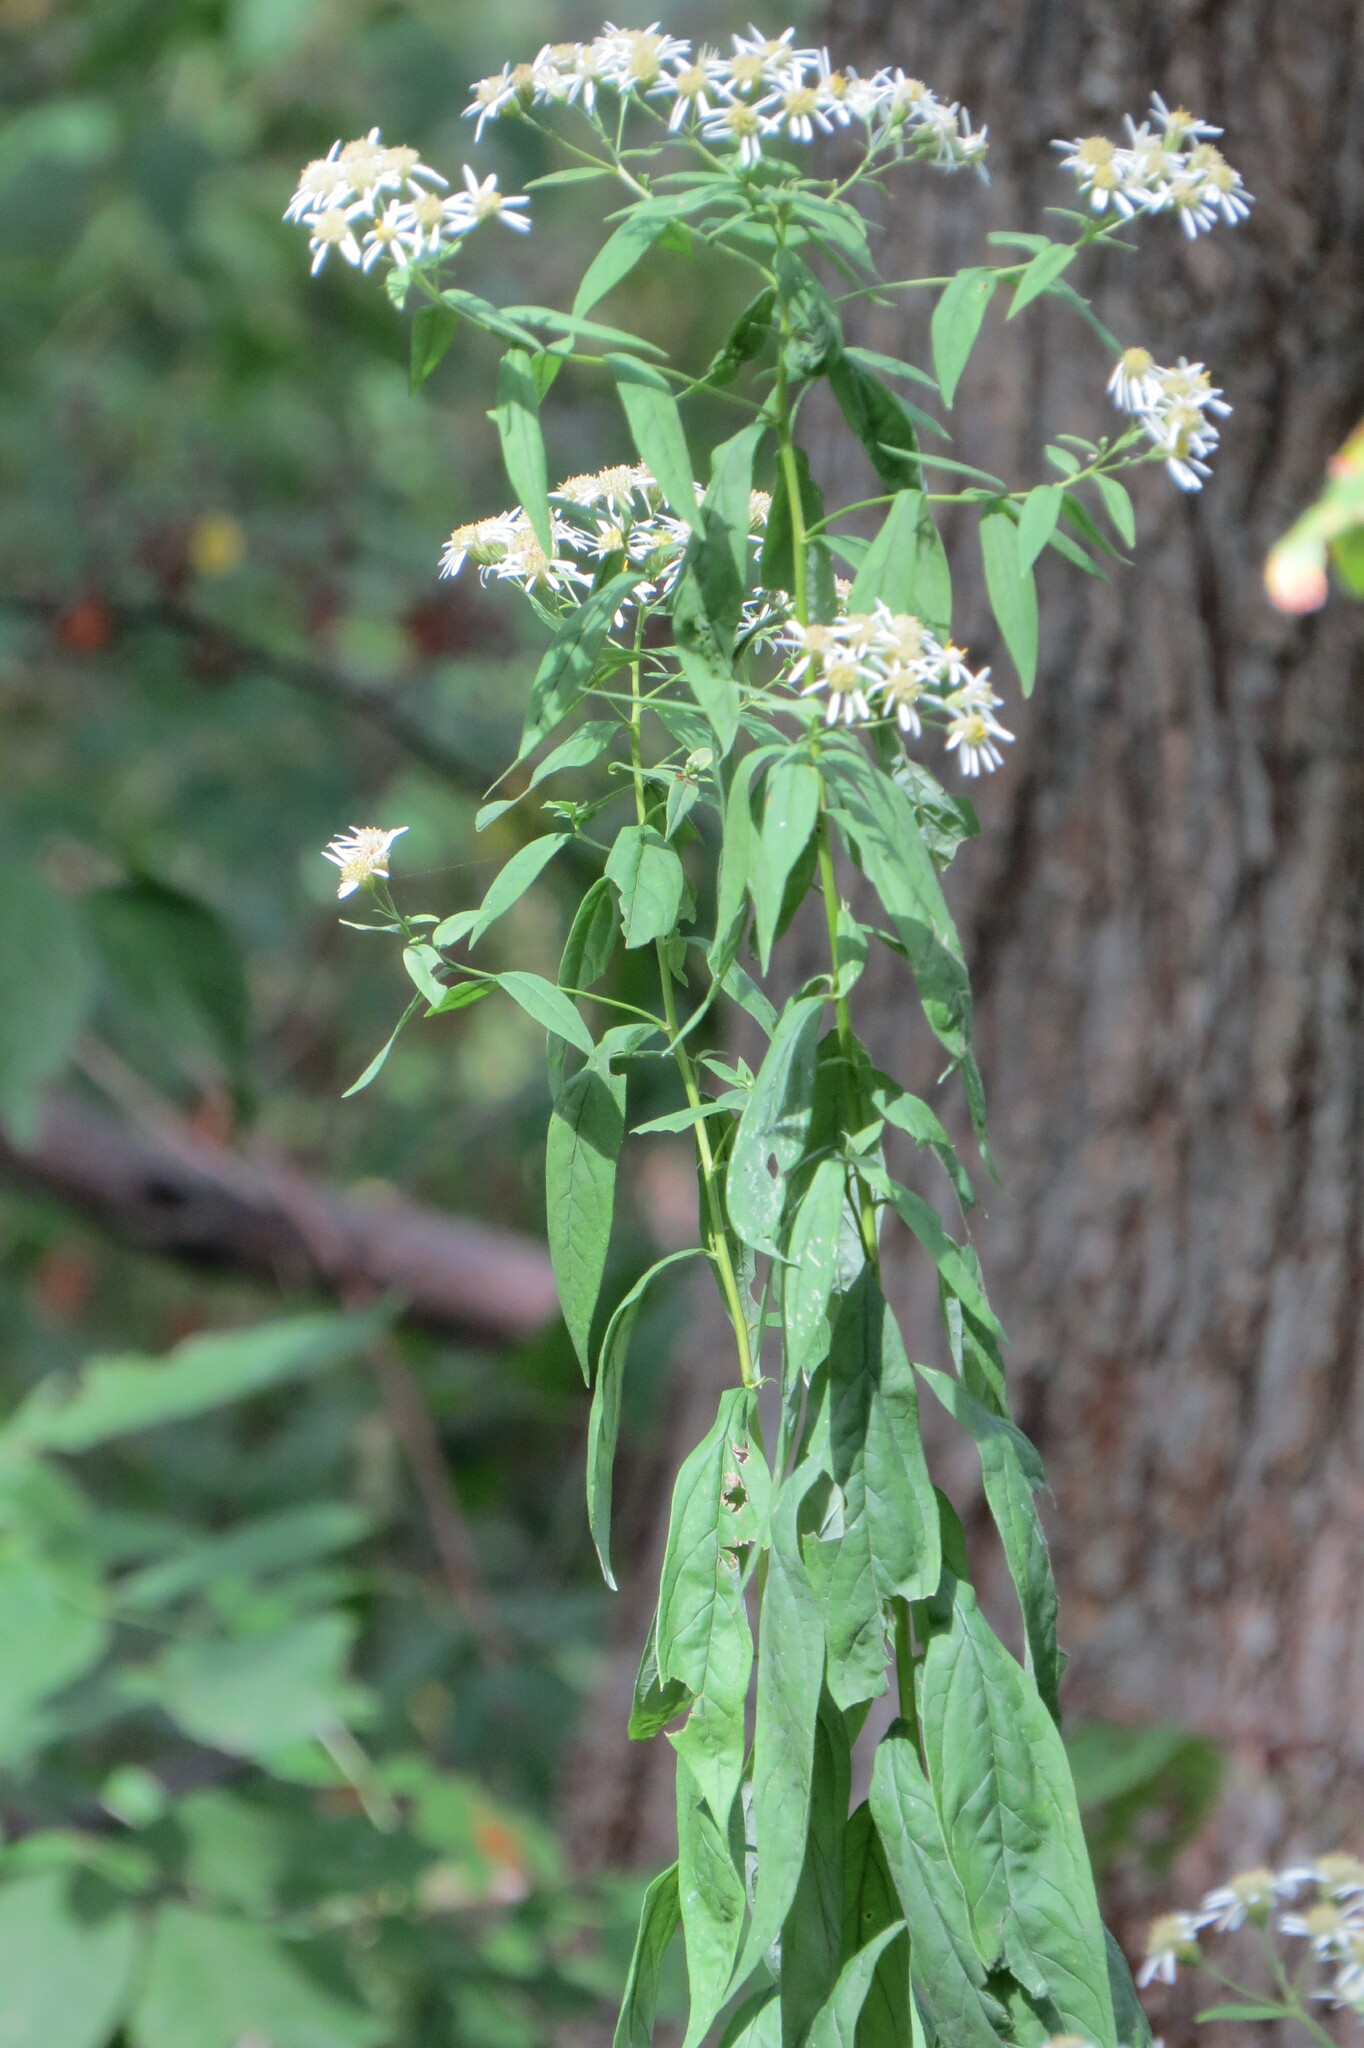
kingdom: Plantae
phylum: Tracheophyta
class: Magnoliopsida
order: Asterales
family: Asteraceae
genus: Doellingeria
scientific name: Doellingeria umbellata
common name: Flat-top white aster
